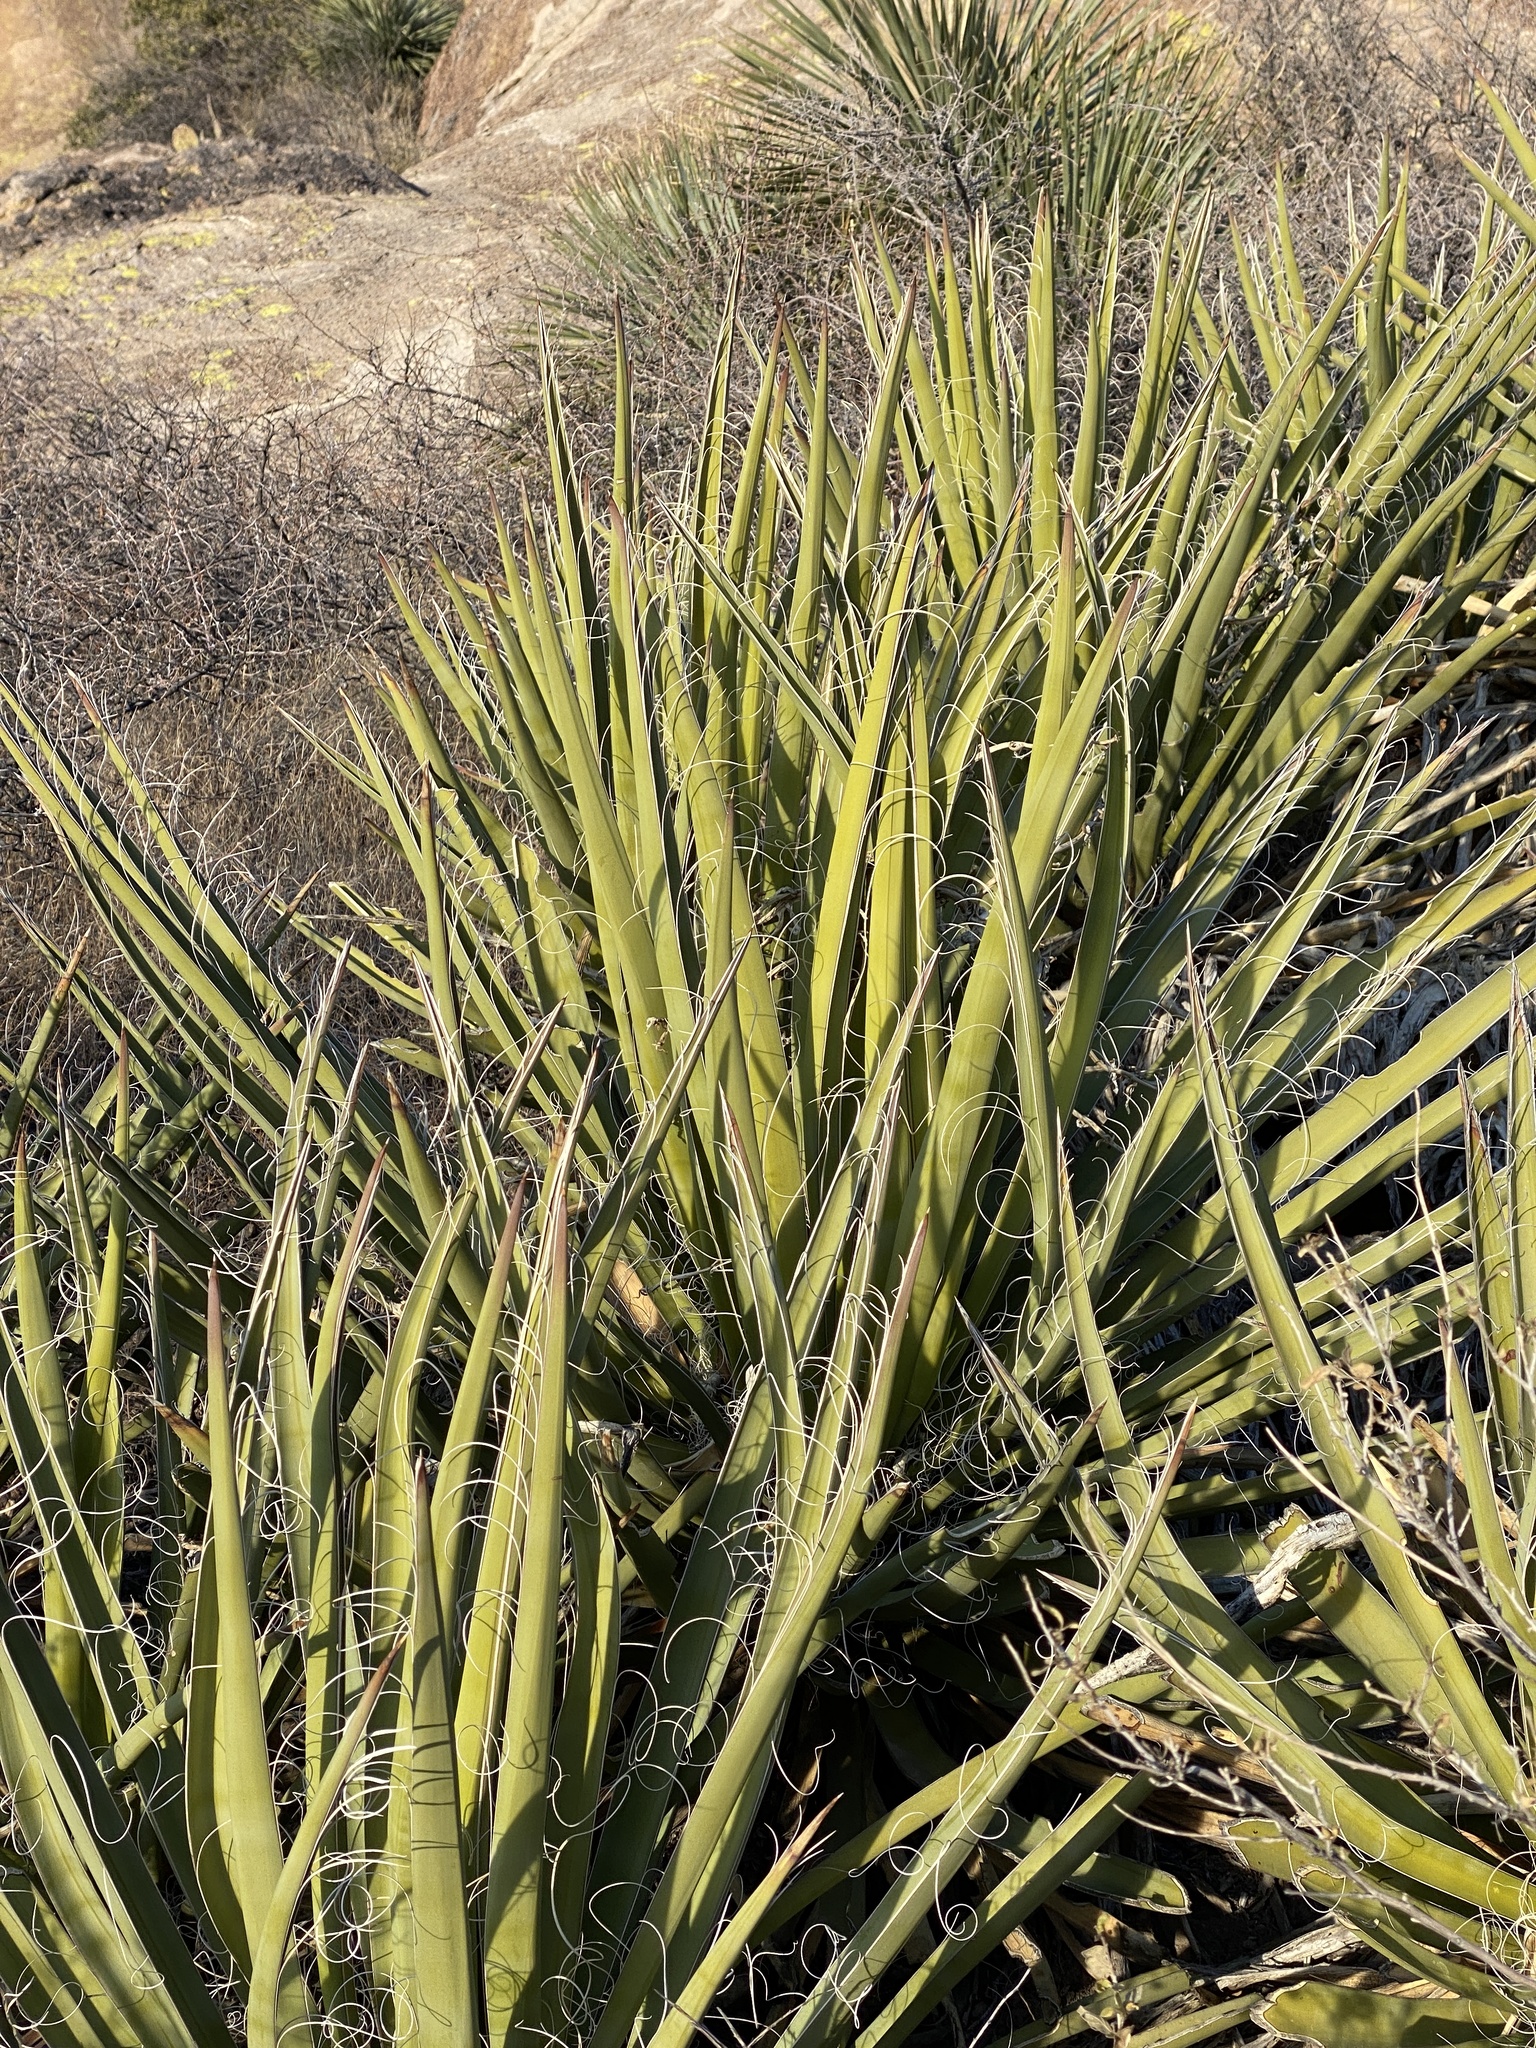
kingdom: Plantae
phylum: Tracheophyta
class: Liliopsida
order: Asparagales
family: Asparagaceae
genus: Yucca
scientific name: Yucca baccata
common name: Banana yucca
